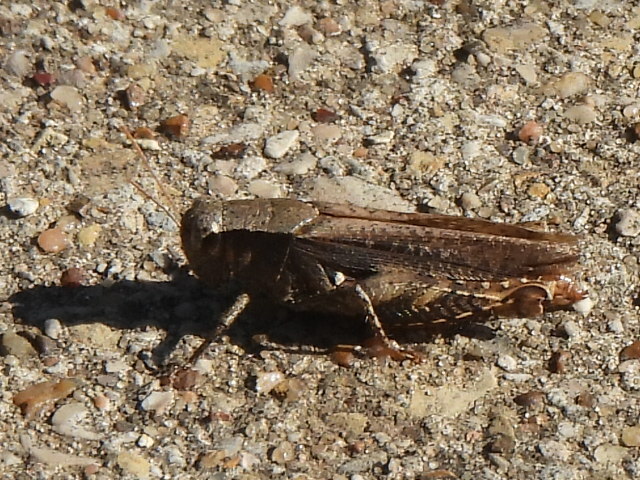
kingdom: Animalia
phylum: Arthropoda
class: Insecta
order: Orthoptera
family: Acrididae
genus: Aidemona
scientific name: Aidemona azteca
